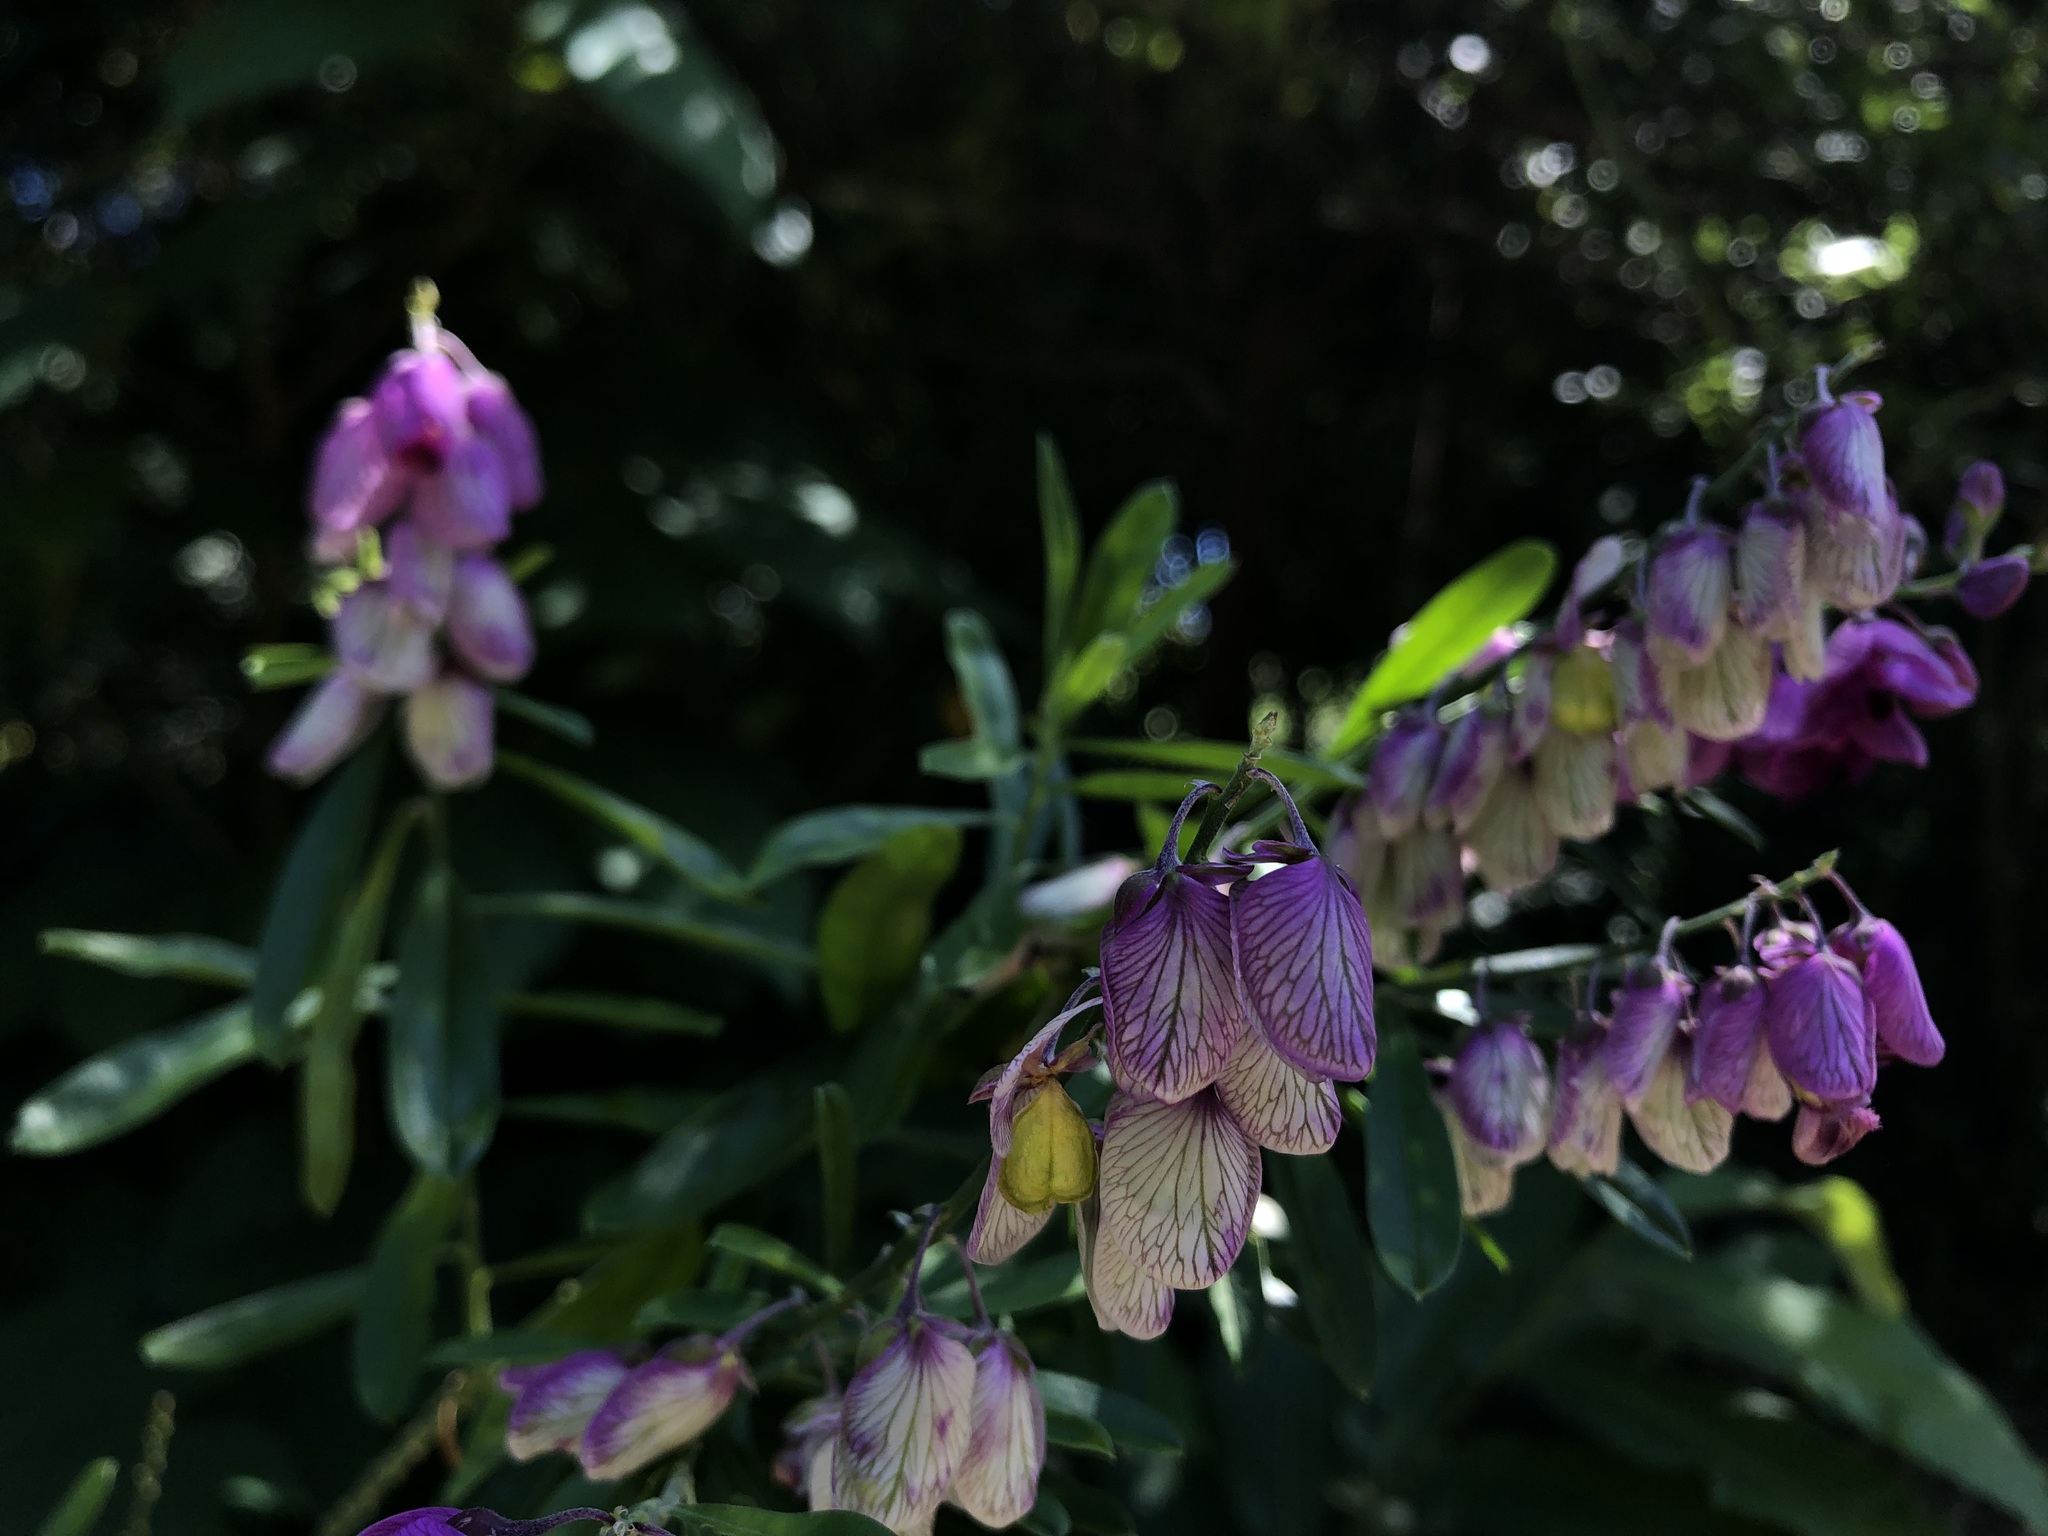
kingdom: Plantae
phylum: Tracheophyta
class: Magnoliopsida
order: Fabales
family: Polygalaceae
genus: Polygala
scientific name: Polygala virgata
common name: Milkwort
